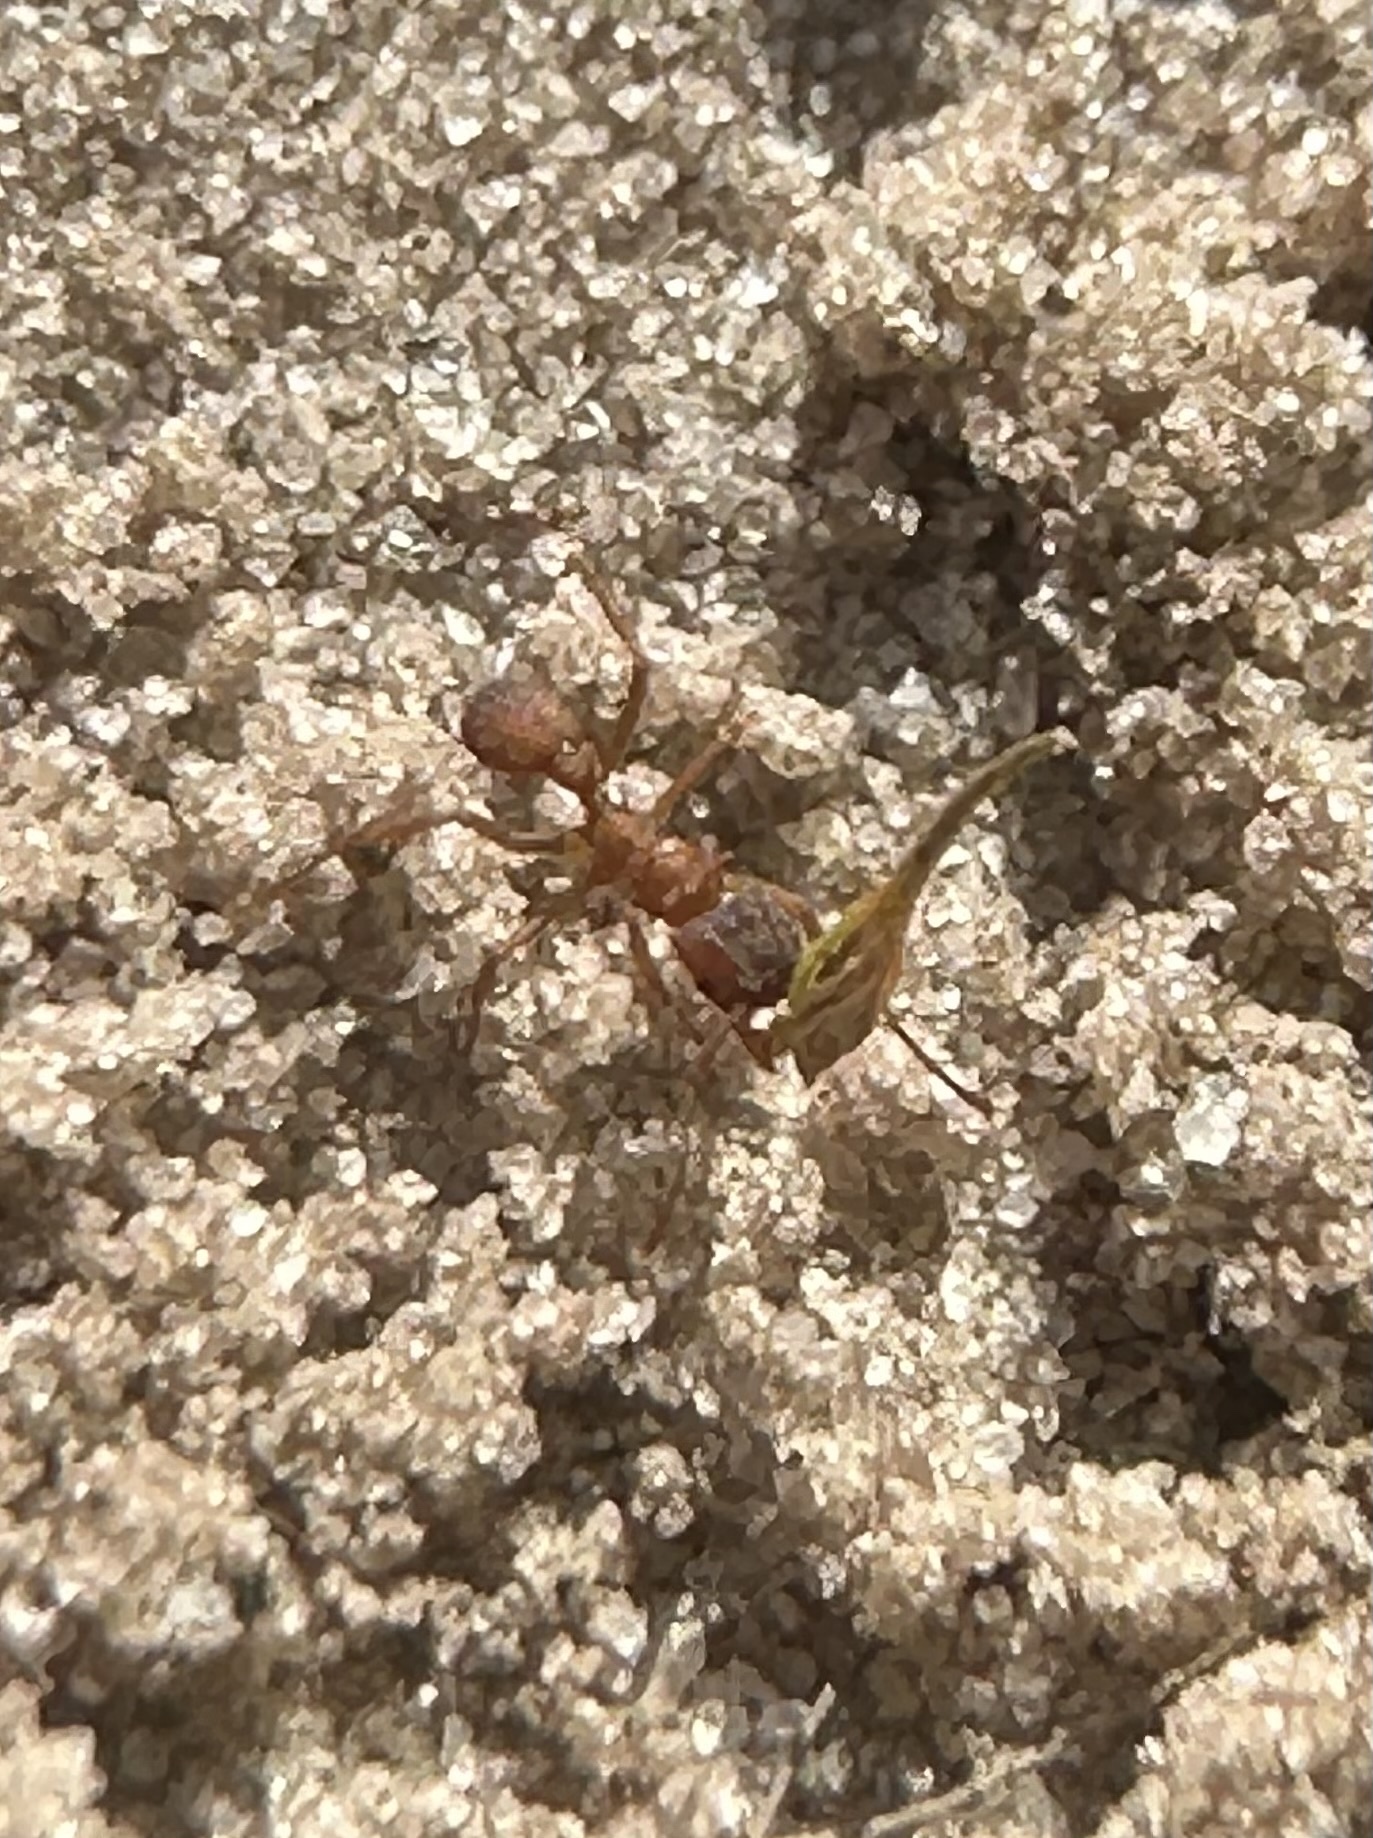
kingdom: Animalia
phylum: Arthropoda
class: Insecta
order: Hymenoptera
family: Formicidae
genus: Trachymyrmex
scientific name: Trachymyrmex septentrionalis
